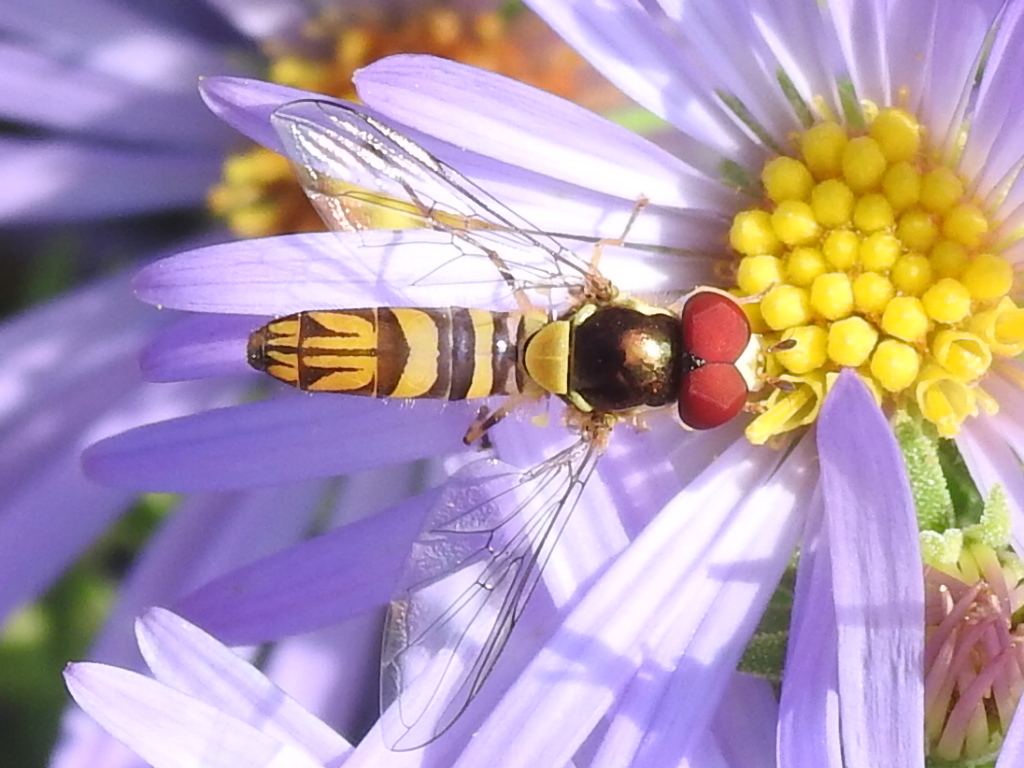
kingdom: Animalia
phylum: Arthropoda
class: Insecta
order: Diptera
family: Syrphidae
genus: Allograpta
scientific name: Allograpta obliqua
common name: Common oblique syrphid
